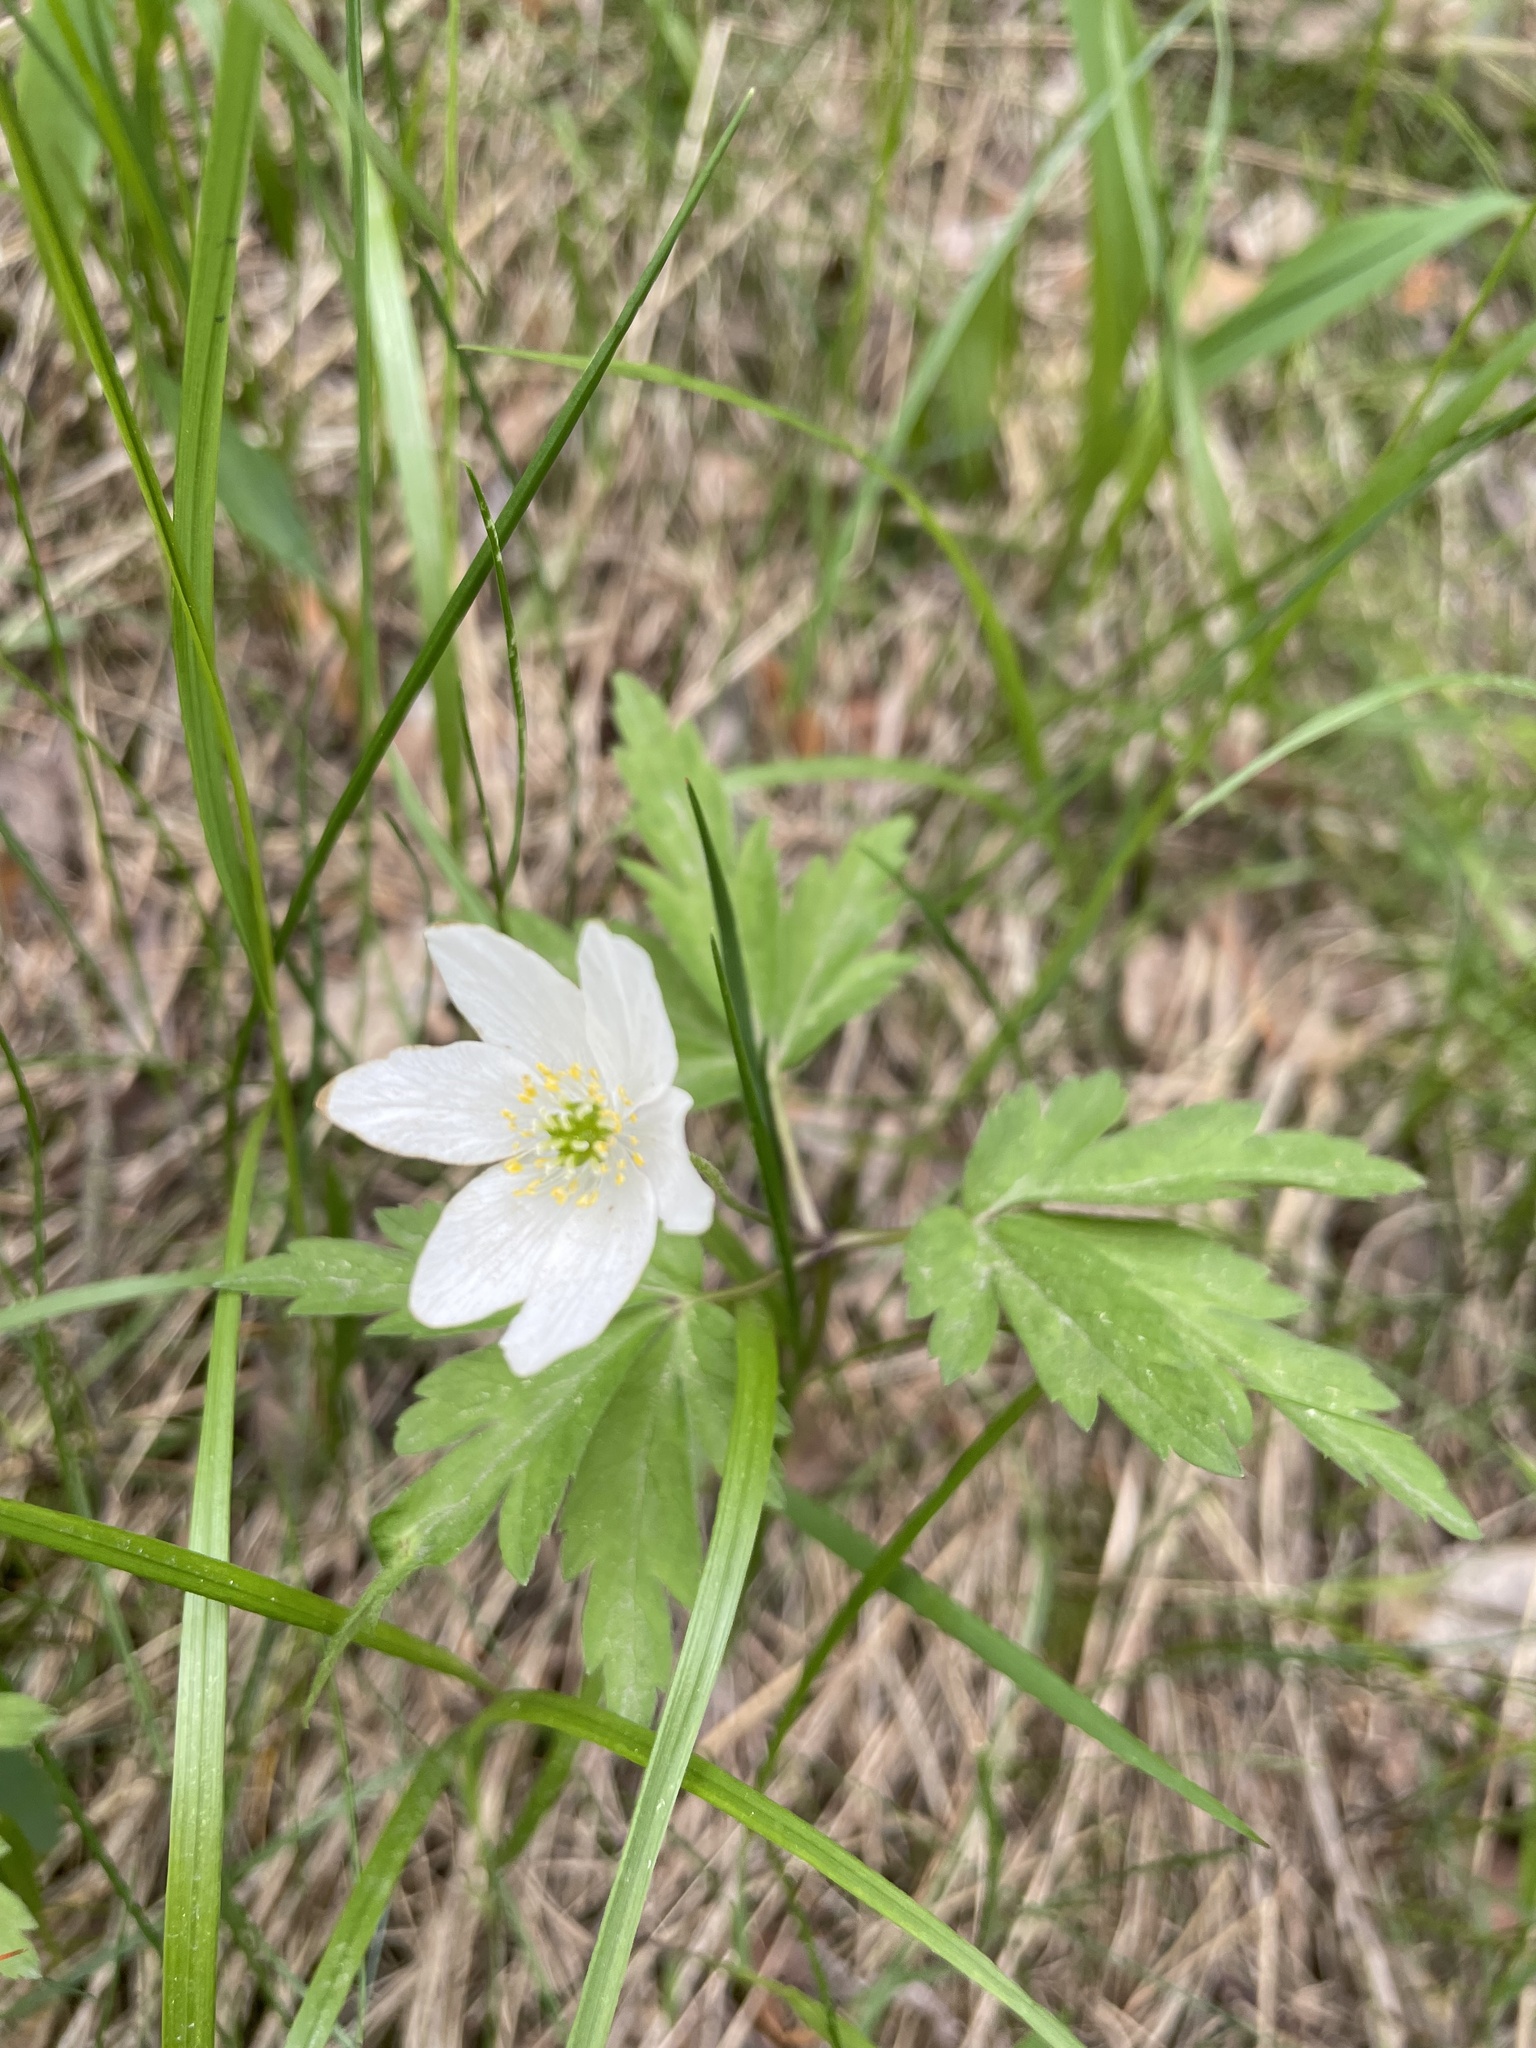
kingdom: Plantae
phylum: Tracheophyta
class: Magnoliopsida
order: Ranunculales
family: Ranunculaceae
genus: Anemone
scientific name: Anemone nemorosa
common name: Wood anemone
